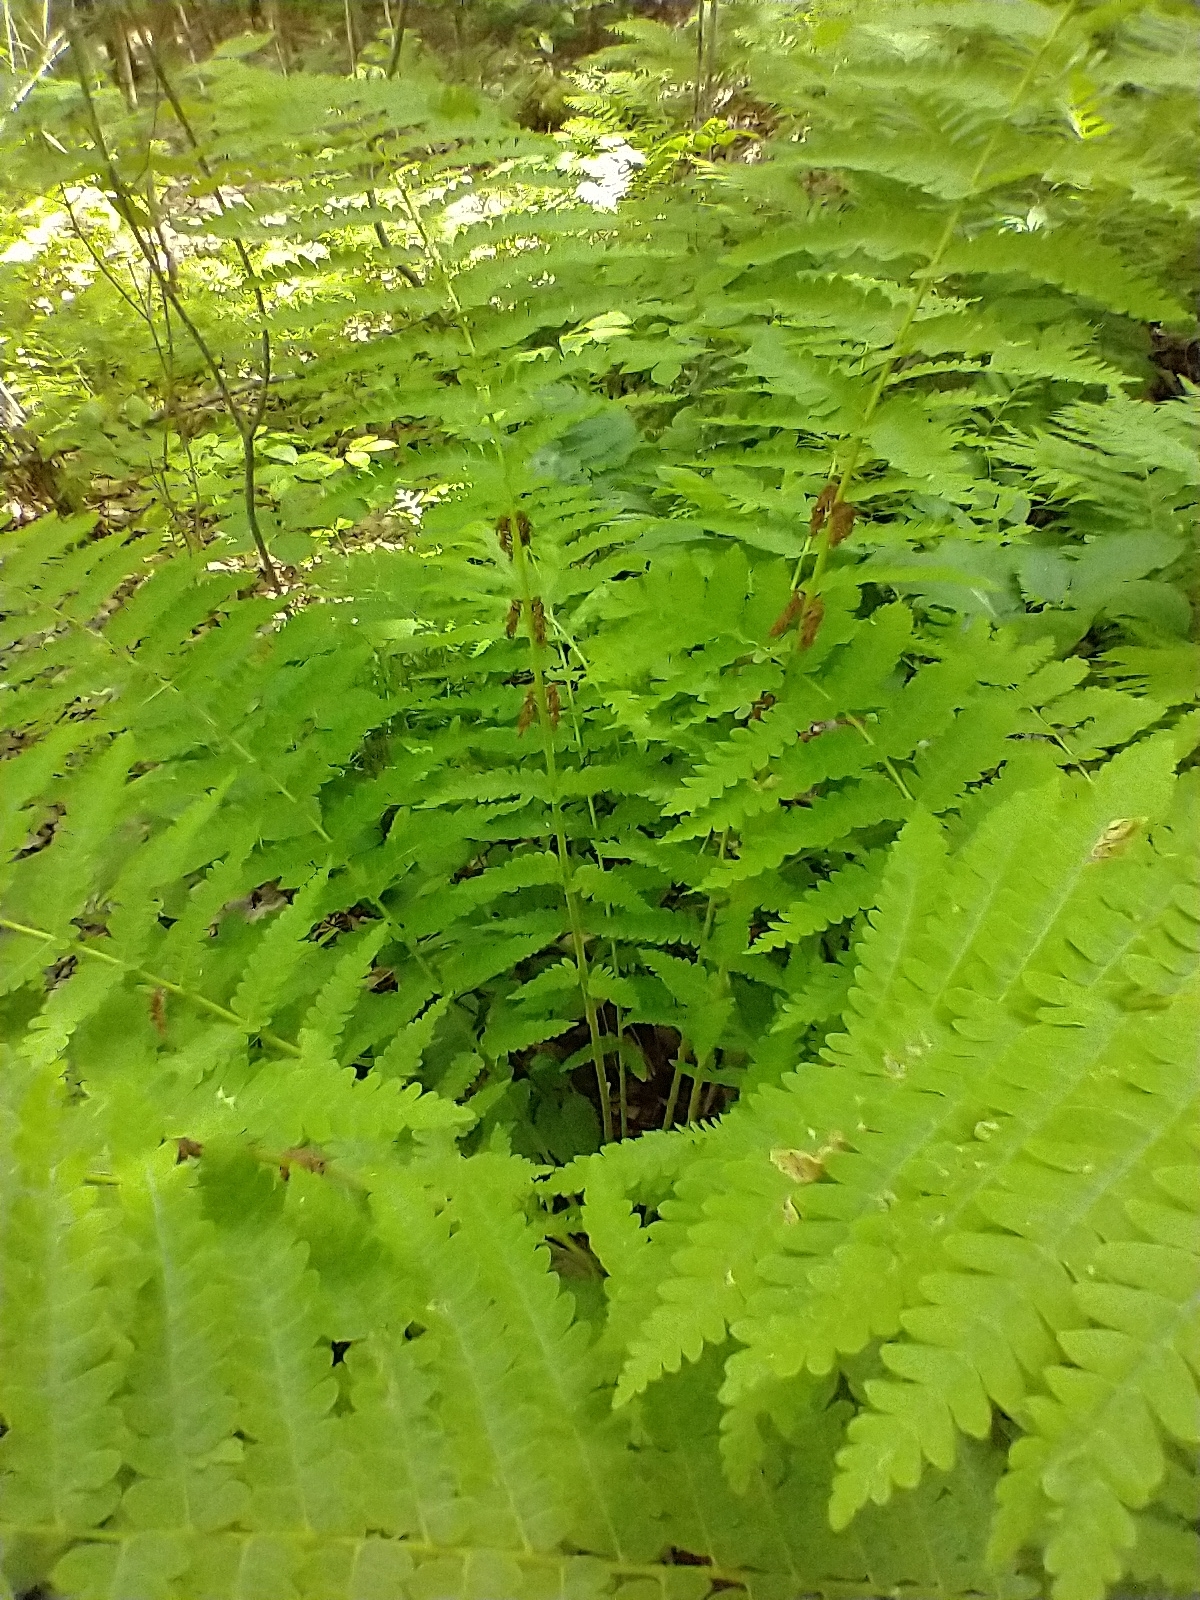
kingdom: Plantae
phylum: Tracheophyta
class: Polypodiopsida
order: Osmundales
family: Osmundaceae
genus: Claytosmunda
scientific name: Claytosmunda claytoniana
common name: Clayton's fern
